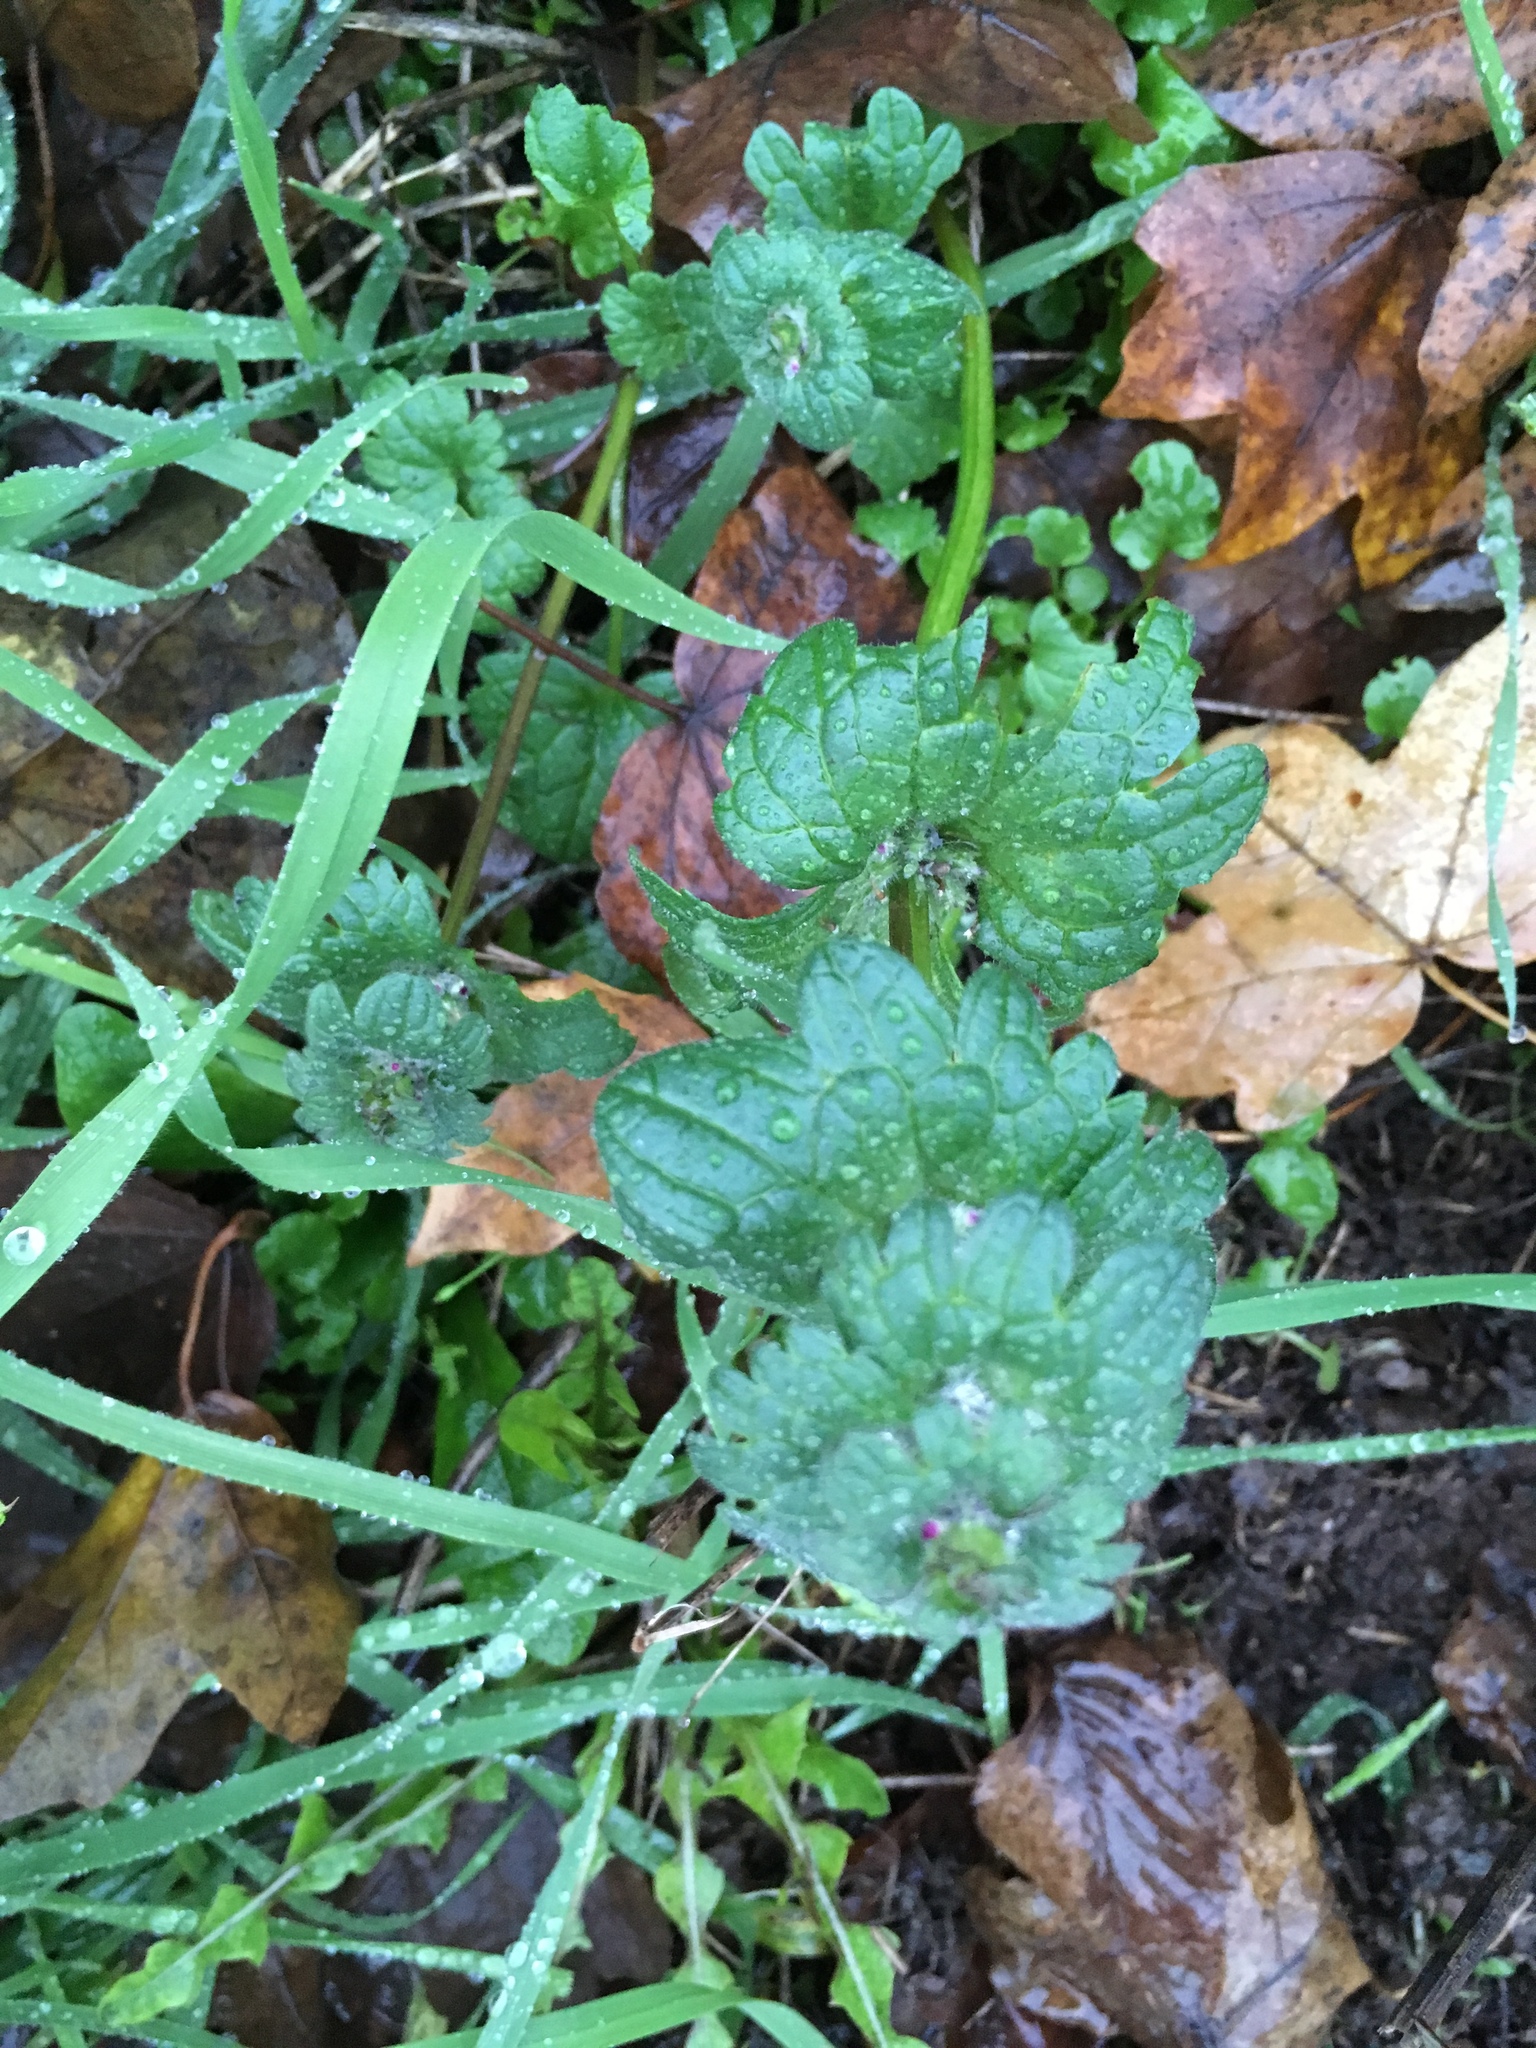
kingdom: Plantae
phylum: Tracheophyta
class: Magnoliopsida
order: Lamiales
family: Lamiaceae
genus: Lamium
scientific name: Lamium amplexicaule
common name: Henbit dead-nettle
